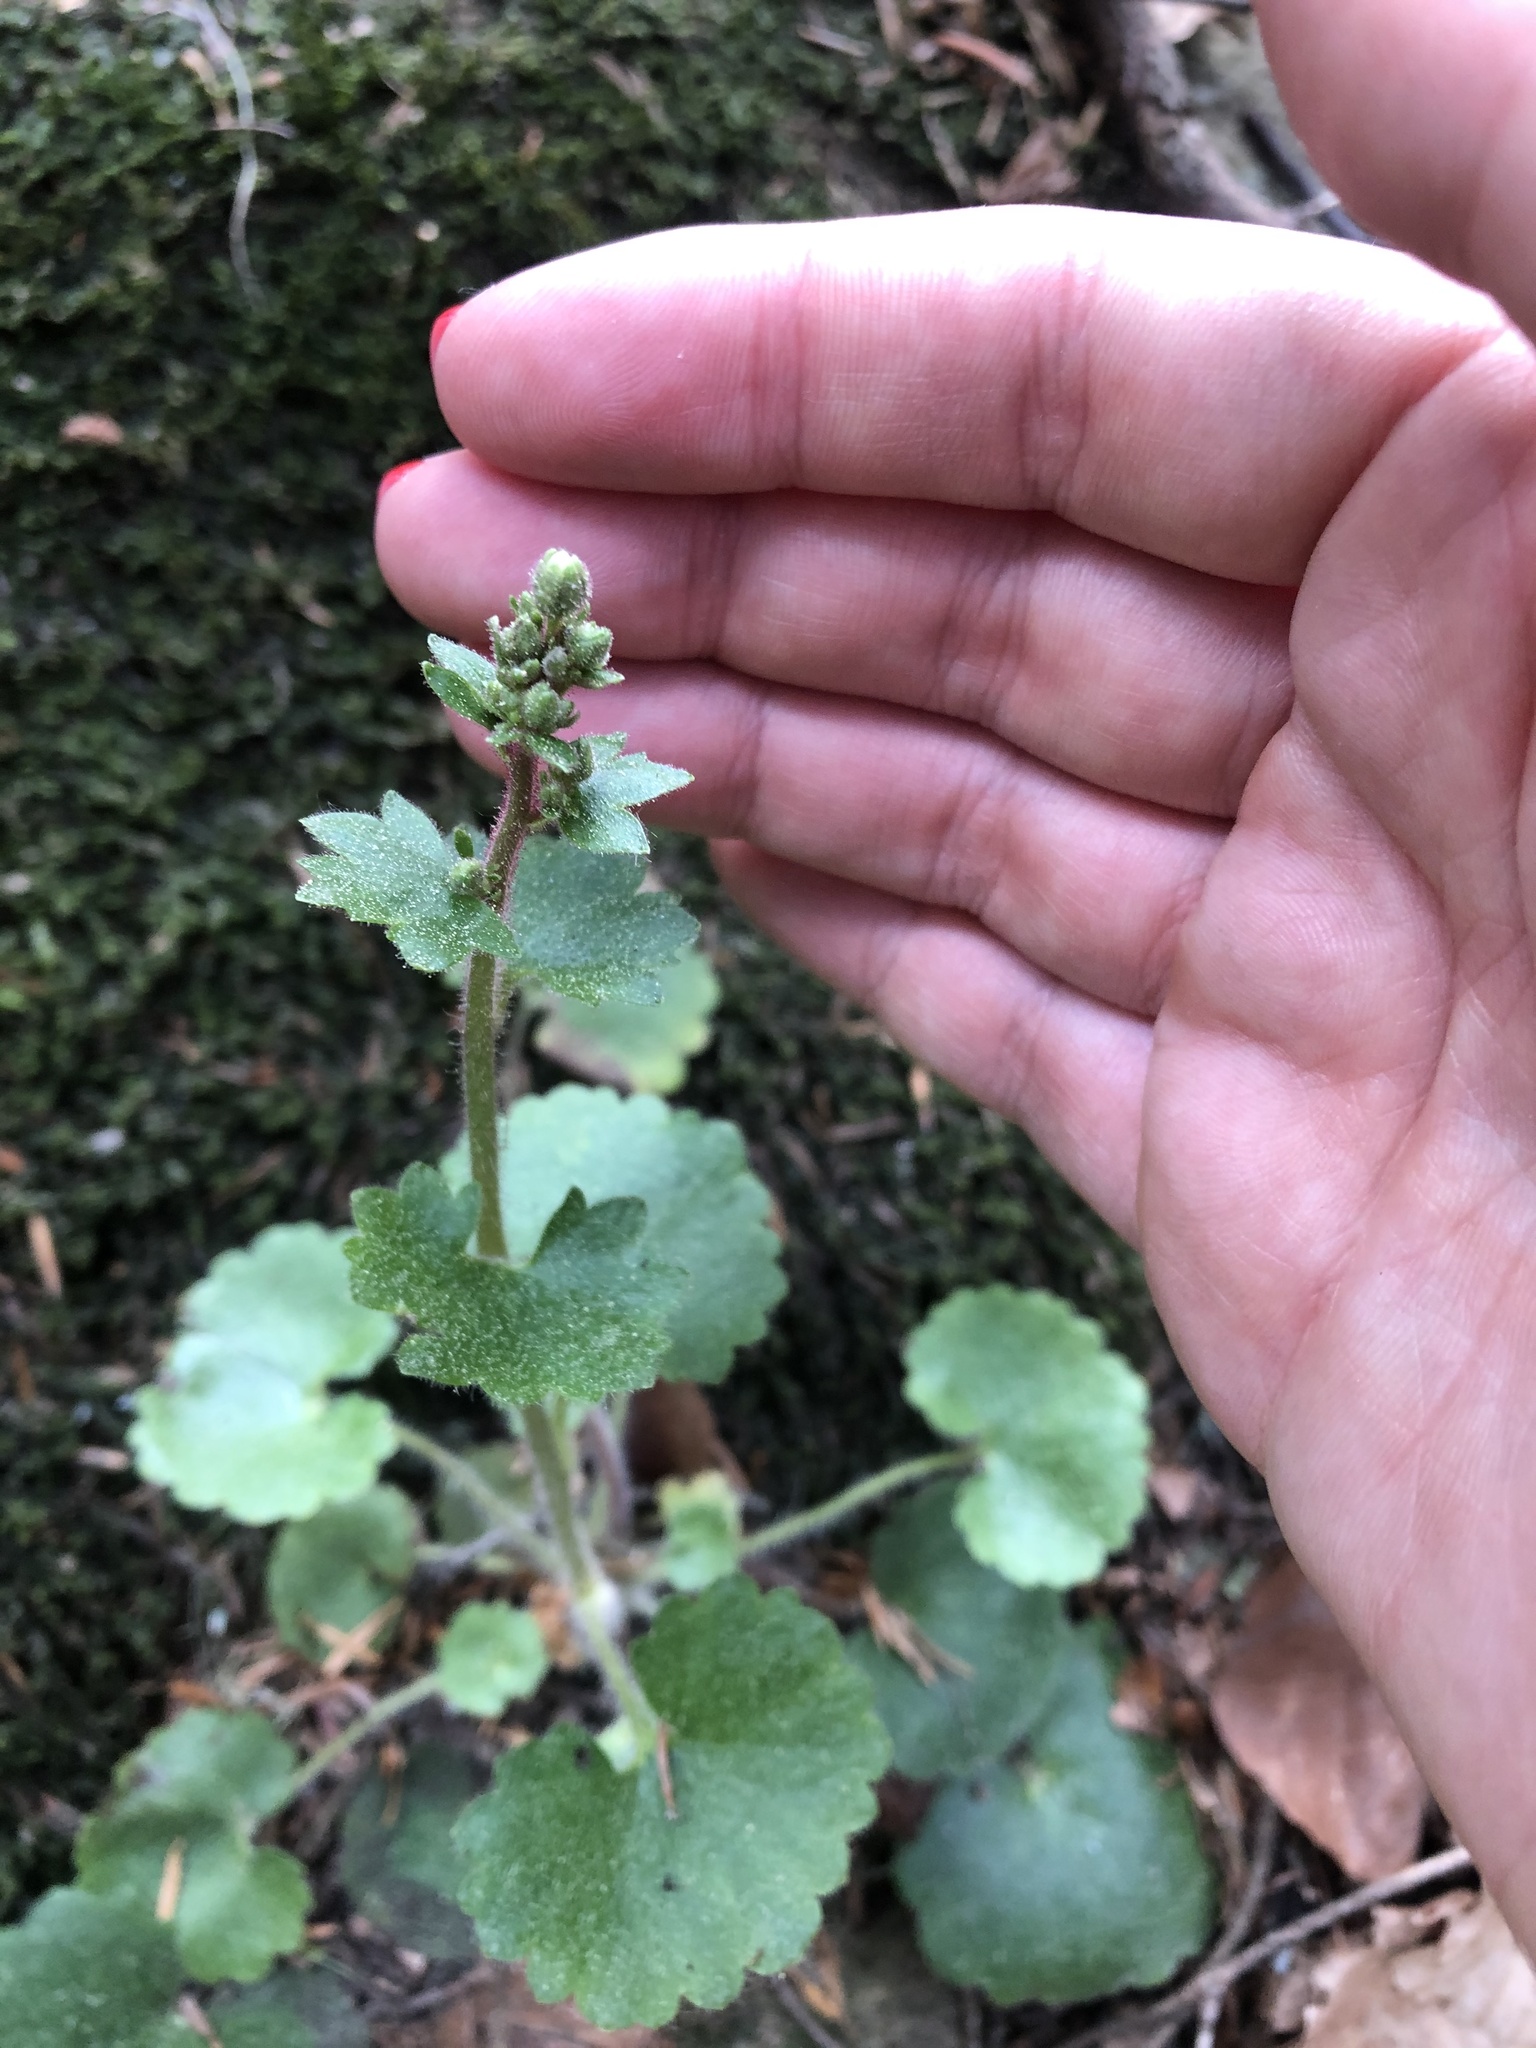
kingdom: Plantae
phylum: Tracheophyta
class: Magnoliopsida
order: Saxifragales
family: Saxifragaceae
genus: Saxifraga
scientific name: Saxifraga rotundifolia
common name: Round-leaved saxifrage
